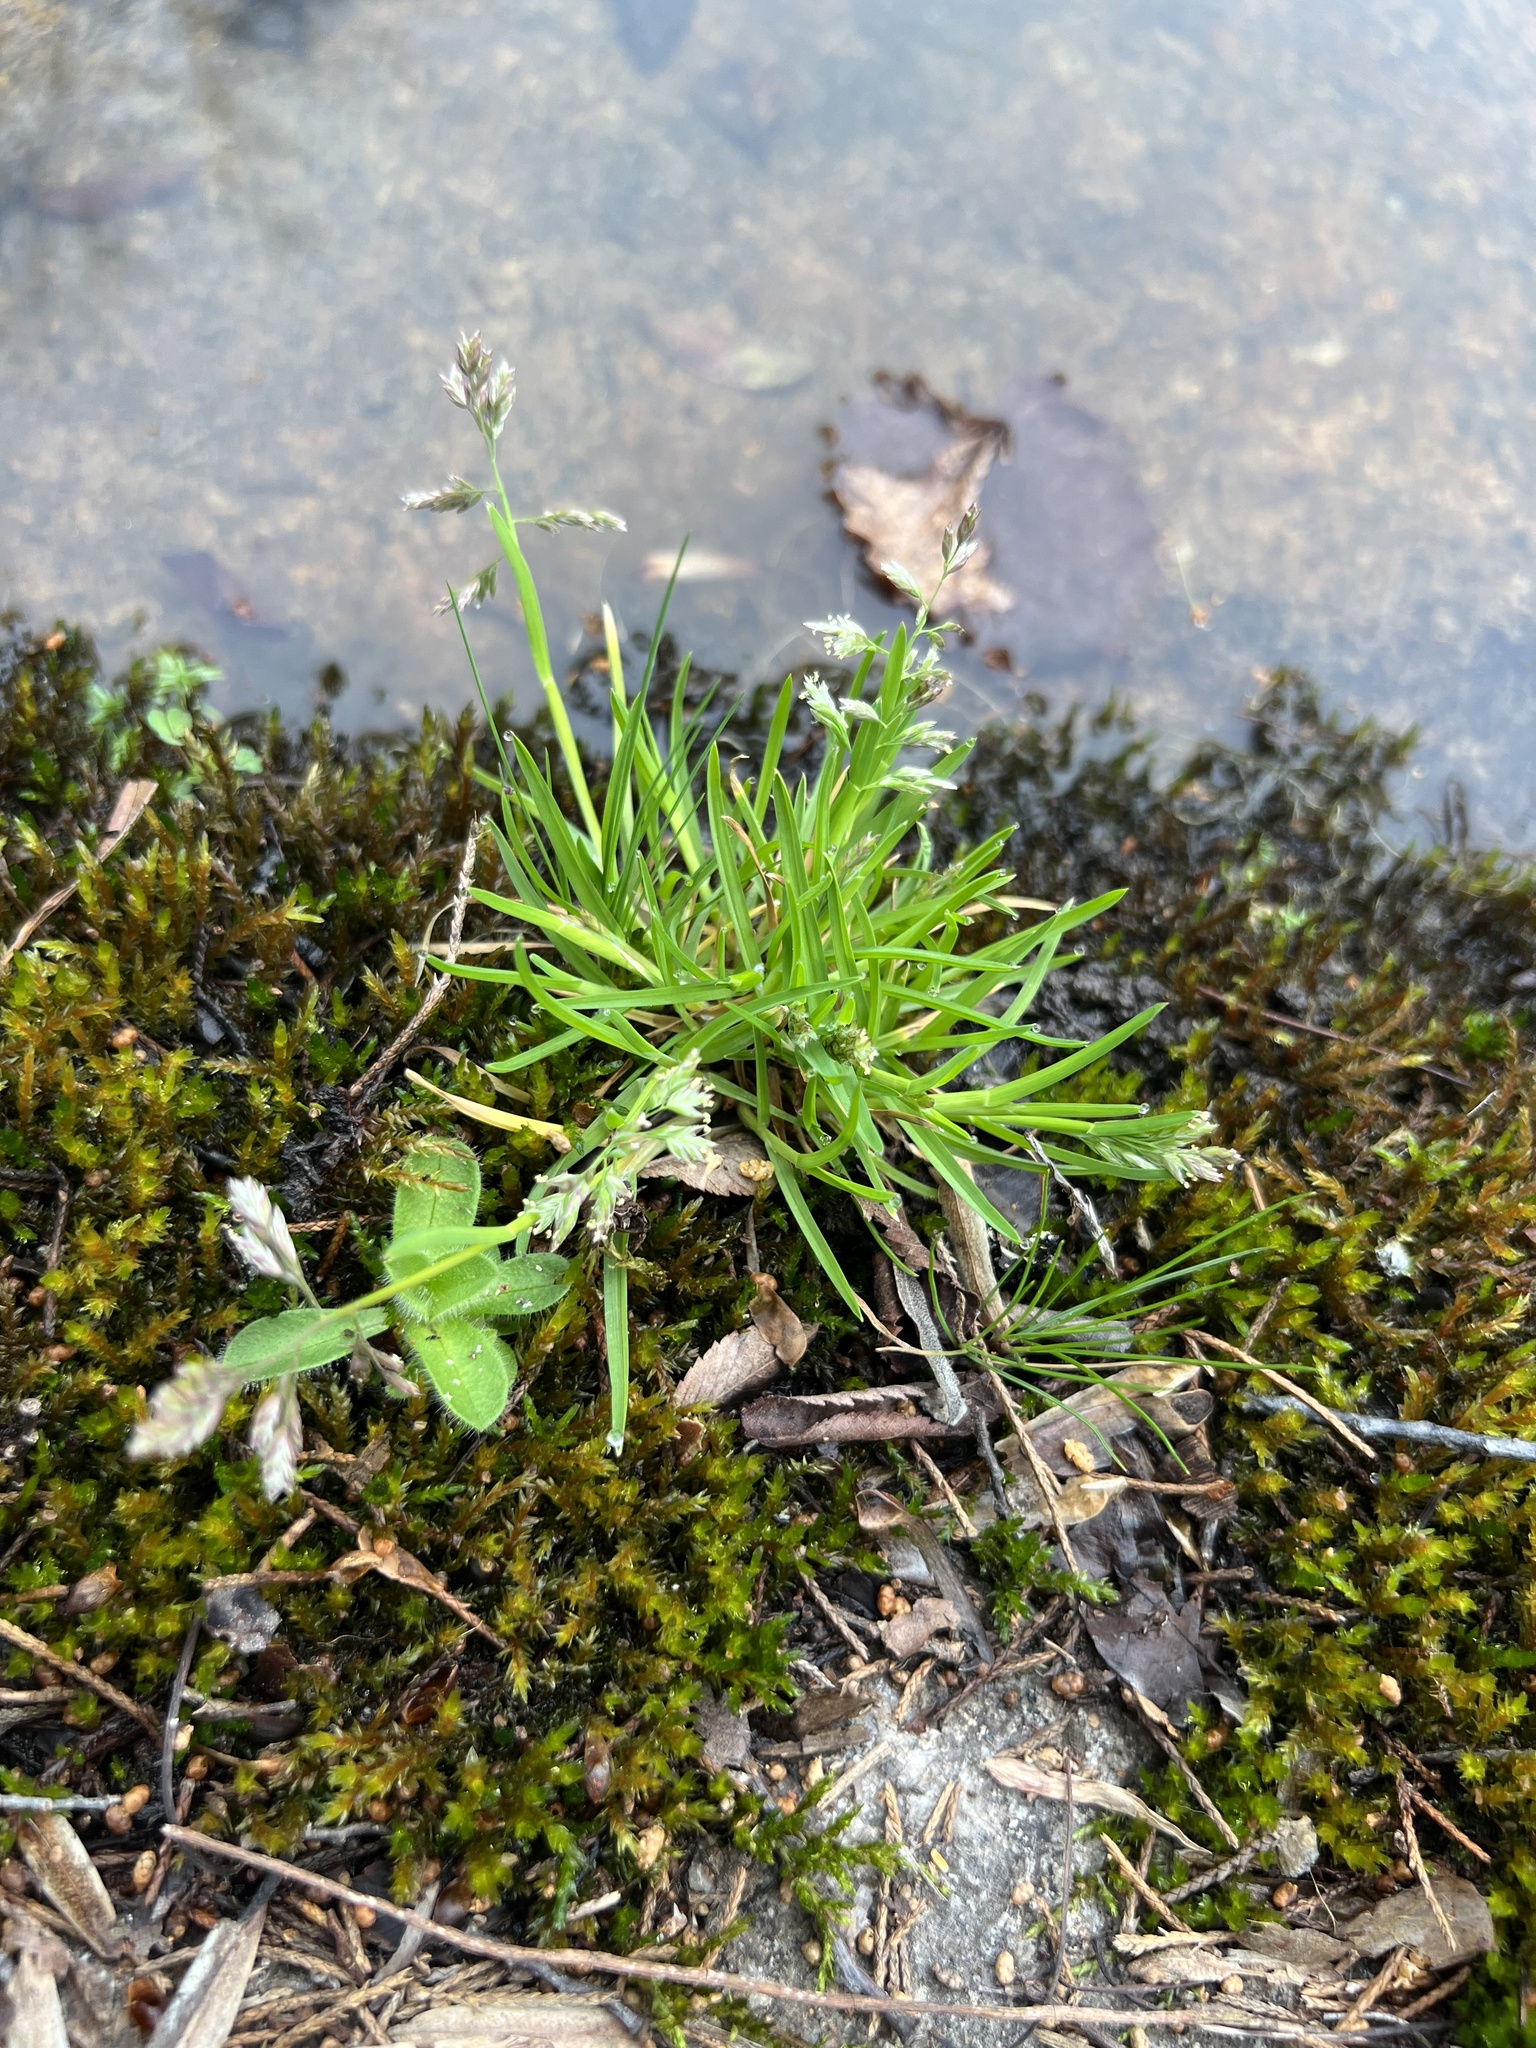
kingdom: Plantae
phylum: Tracheophyta
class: Liliopsida
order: Poales
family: Poaceae
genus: Poa
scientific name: Poa annua
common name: Annual bluegrass
